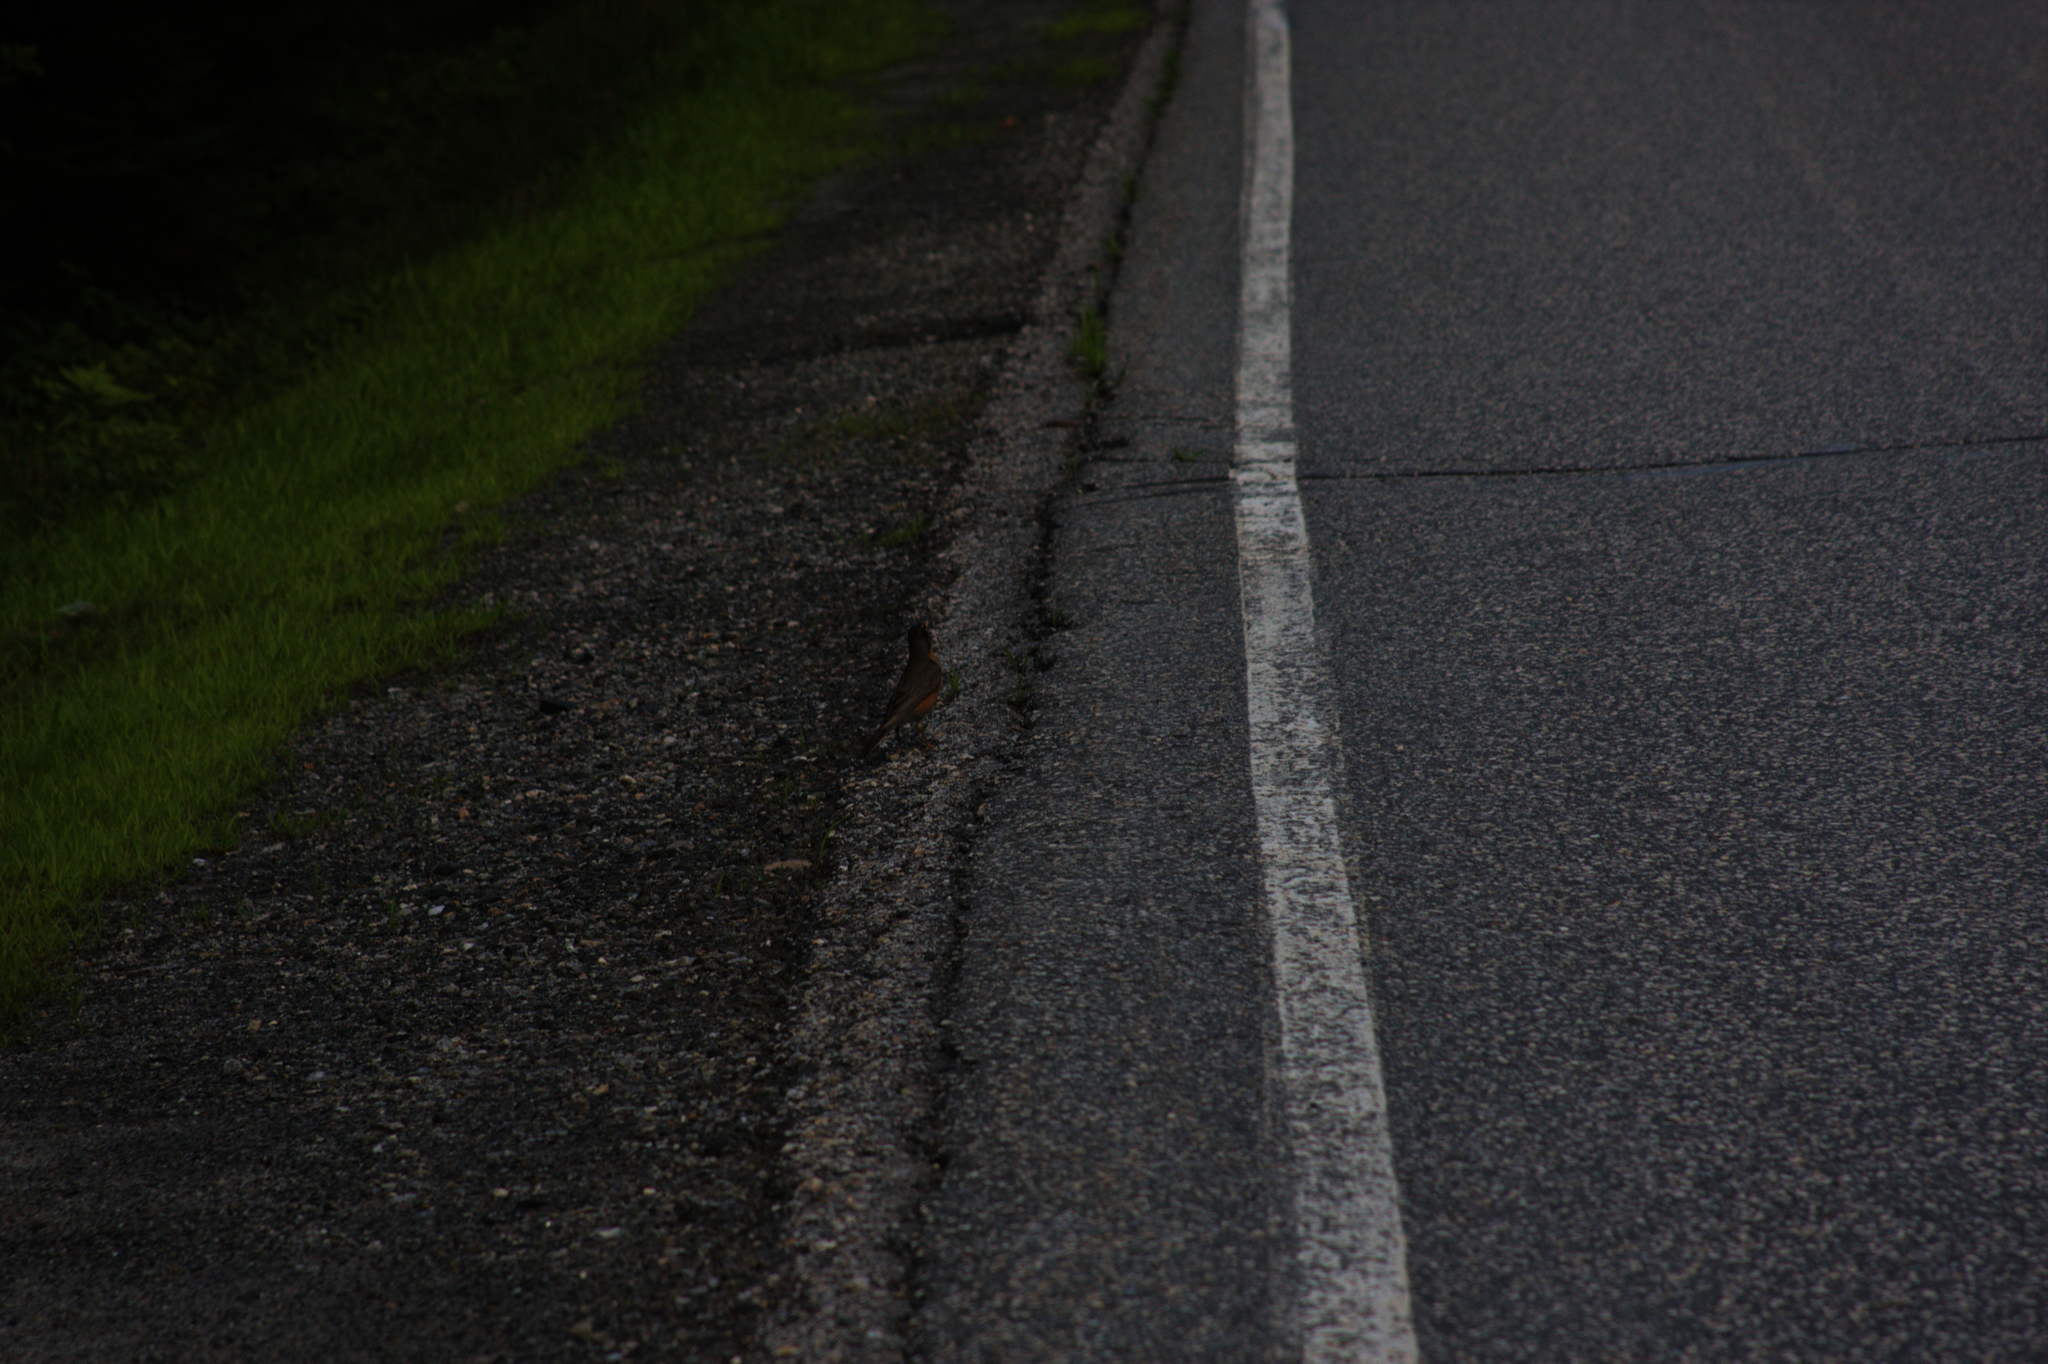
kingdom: Animalia
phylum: Chordata
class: Aves
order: Passeriformes
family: Turdidae
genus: Turdus
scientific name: Turdus migratorius
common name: American robin
